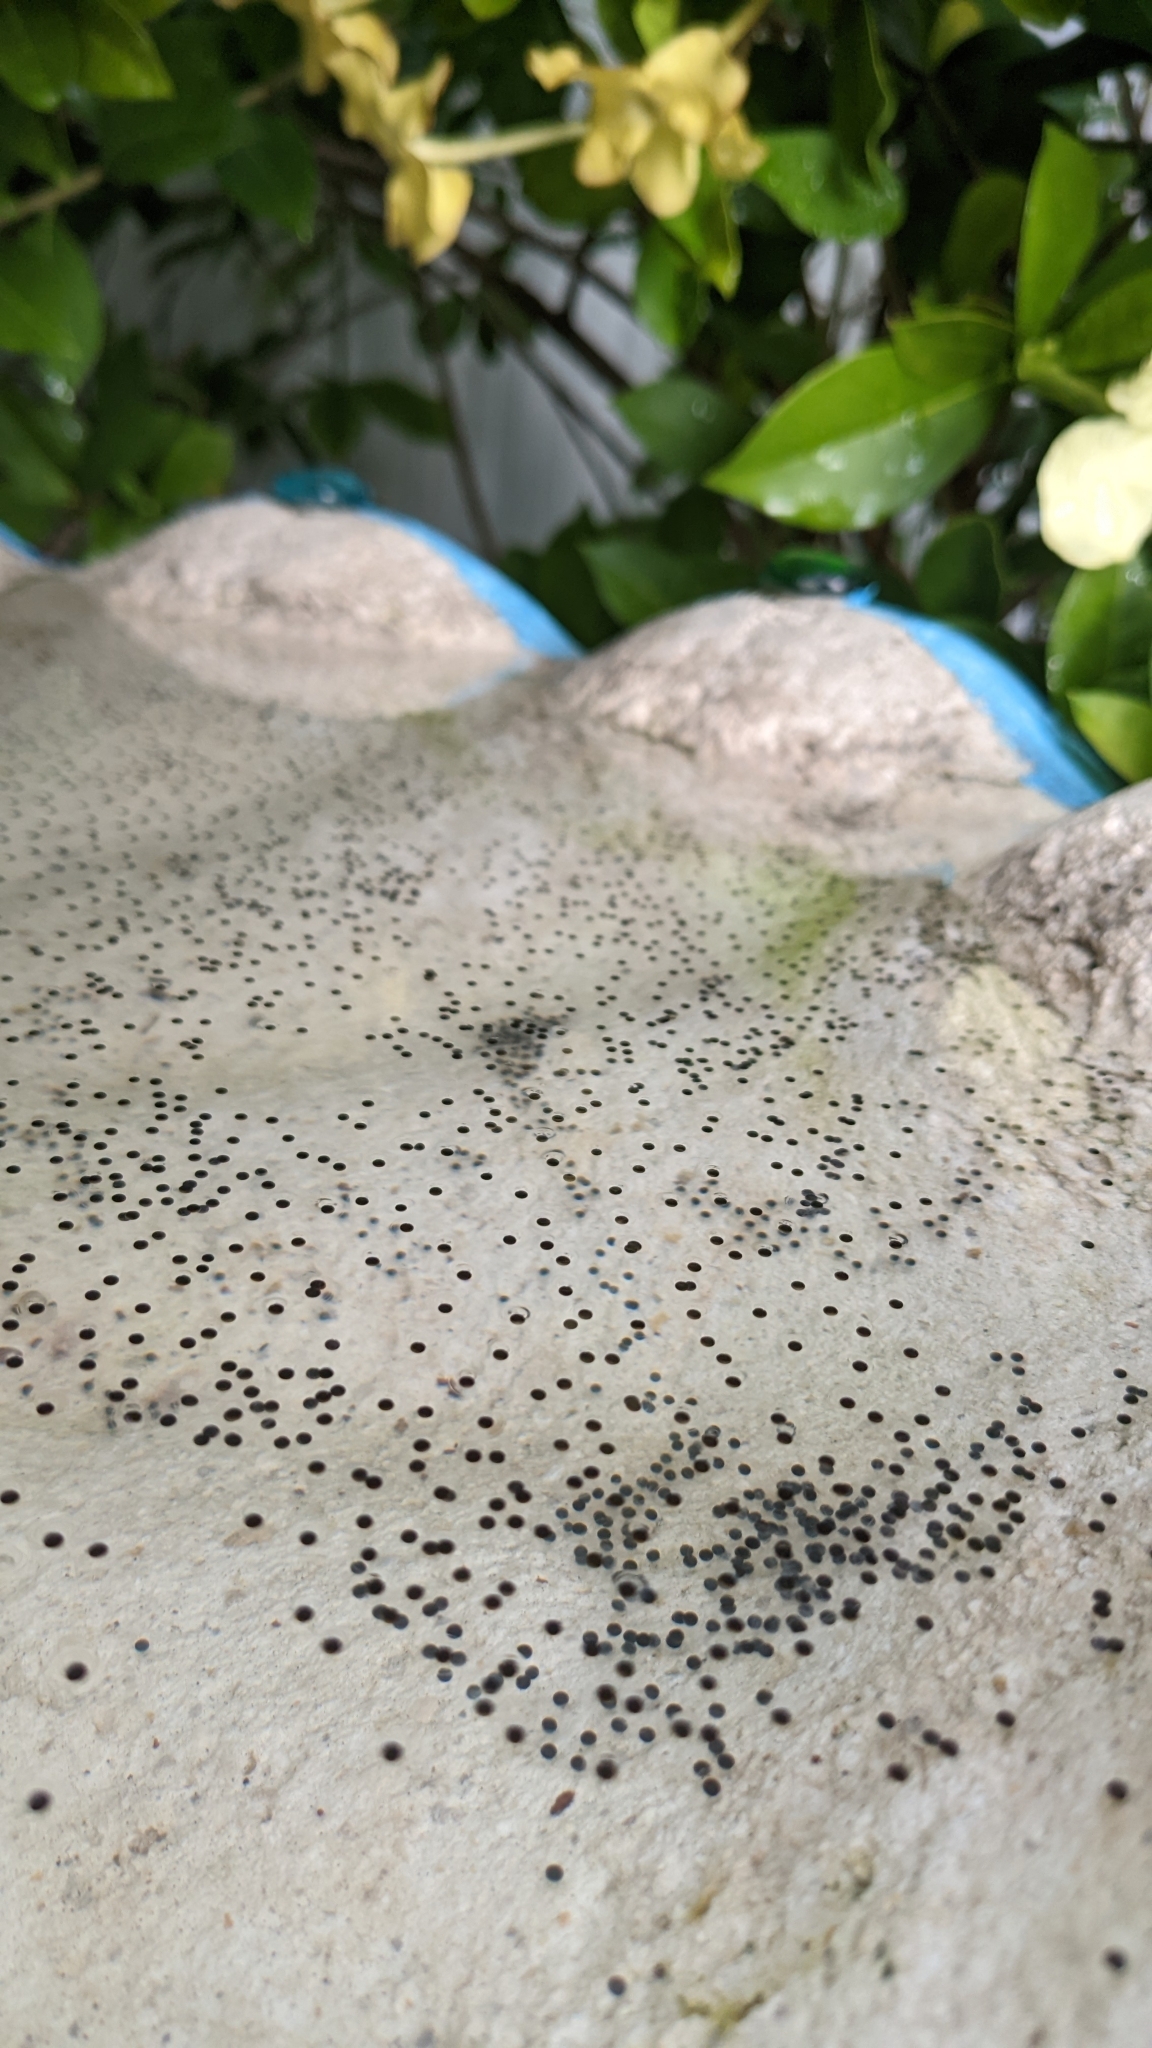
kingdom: Animalia
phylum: Chordata
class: Amphibia
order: Anura
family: Hylidae
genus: Osteopilus
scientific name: Osteopilus septentrionalis
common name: Cuban treefrog
